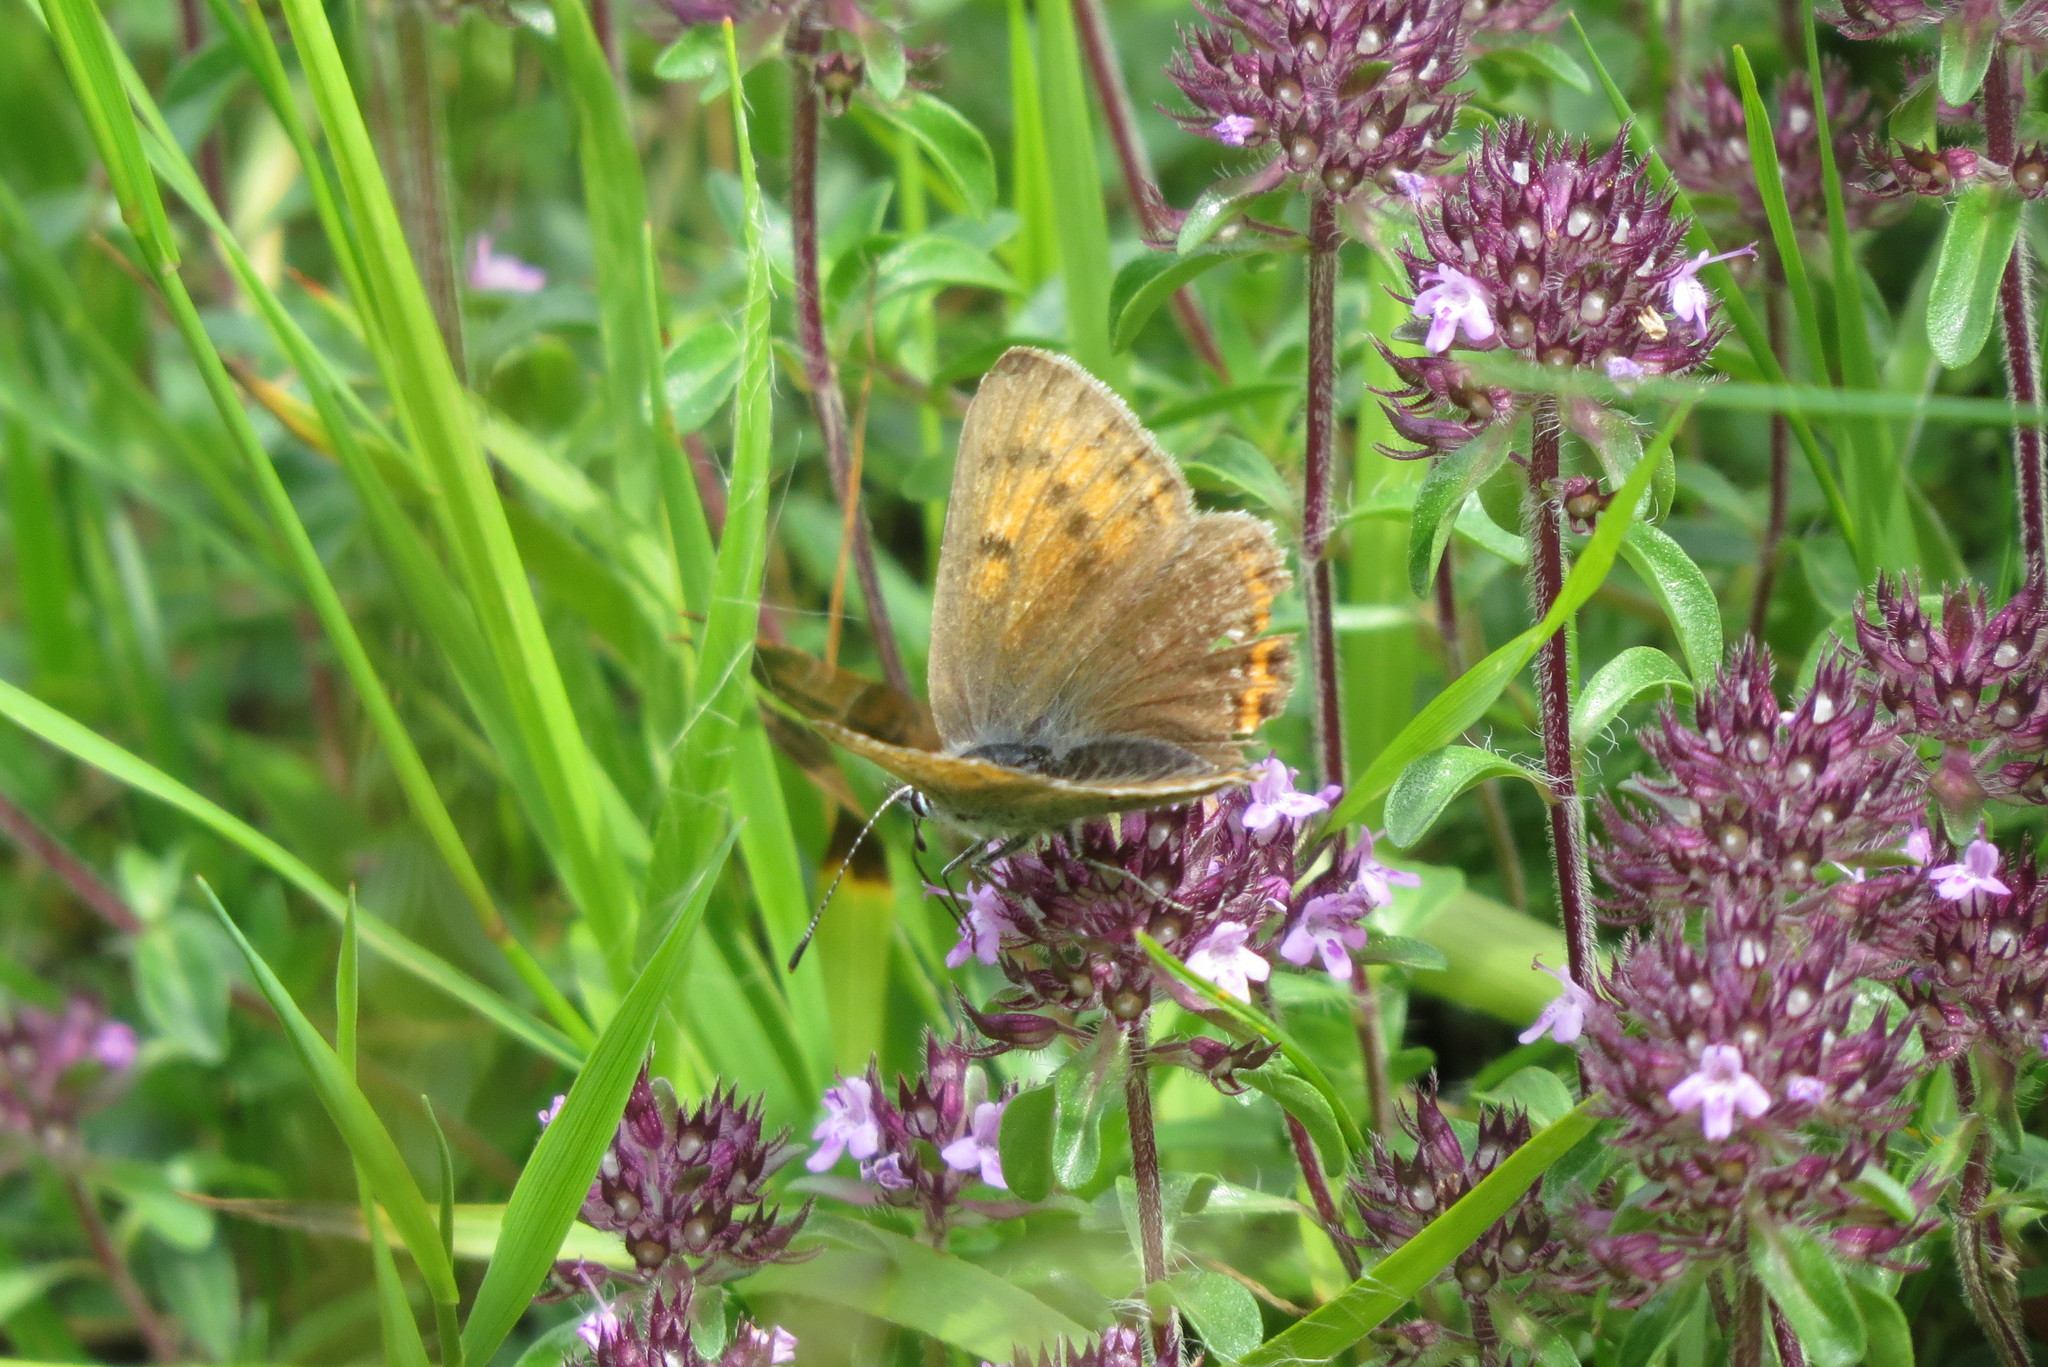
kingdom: Animalia
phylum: Arthropoda
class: Insecta
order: Lepidoptera
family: Lycaenidae
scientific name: Lycaenidae
